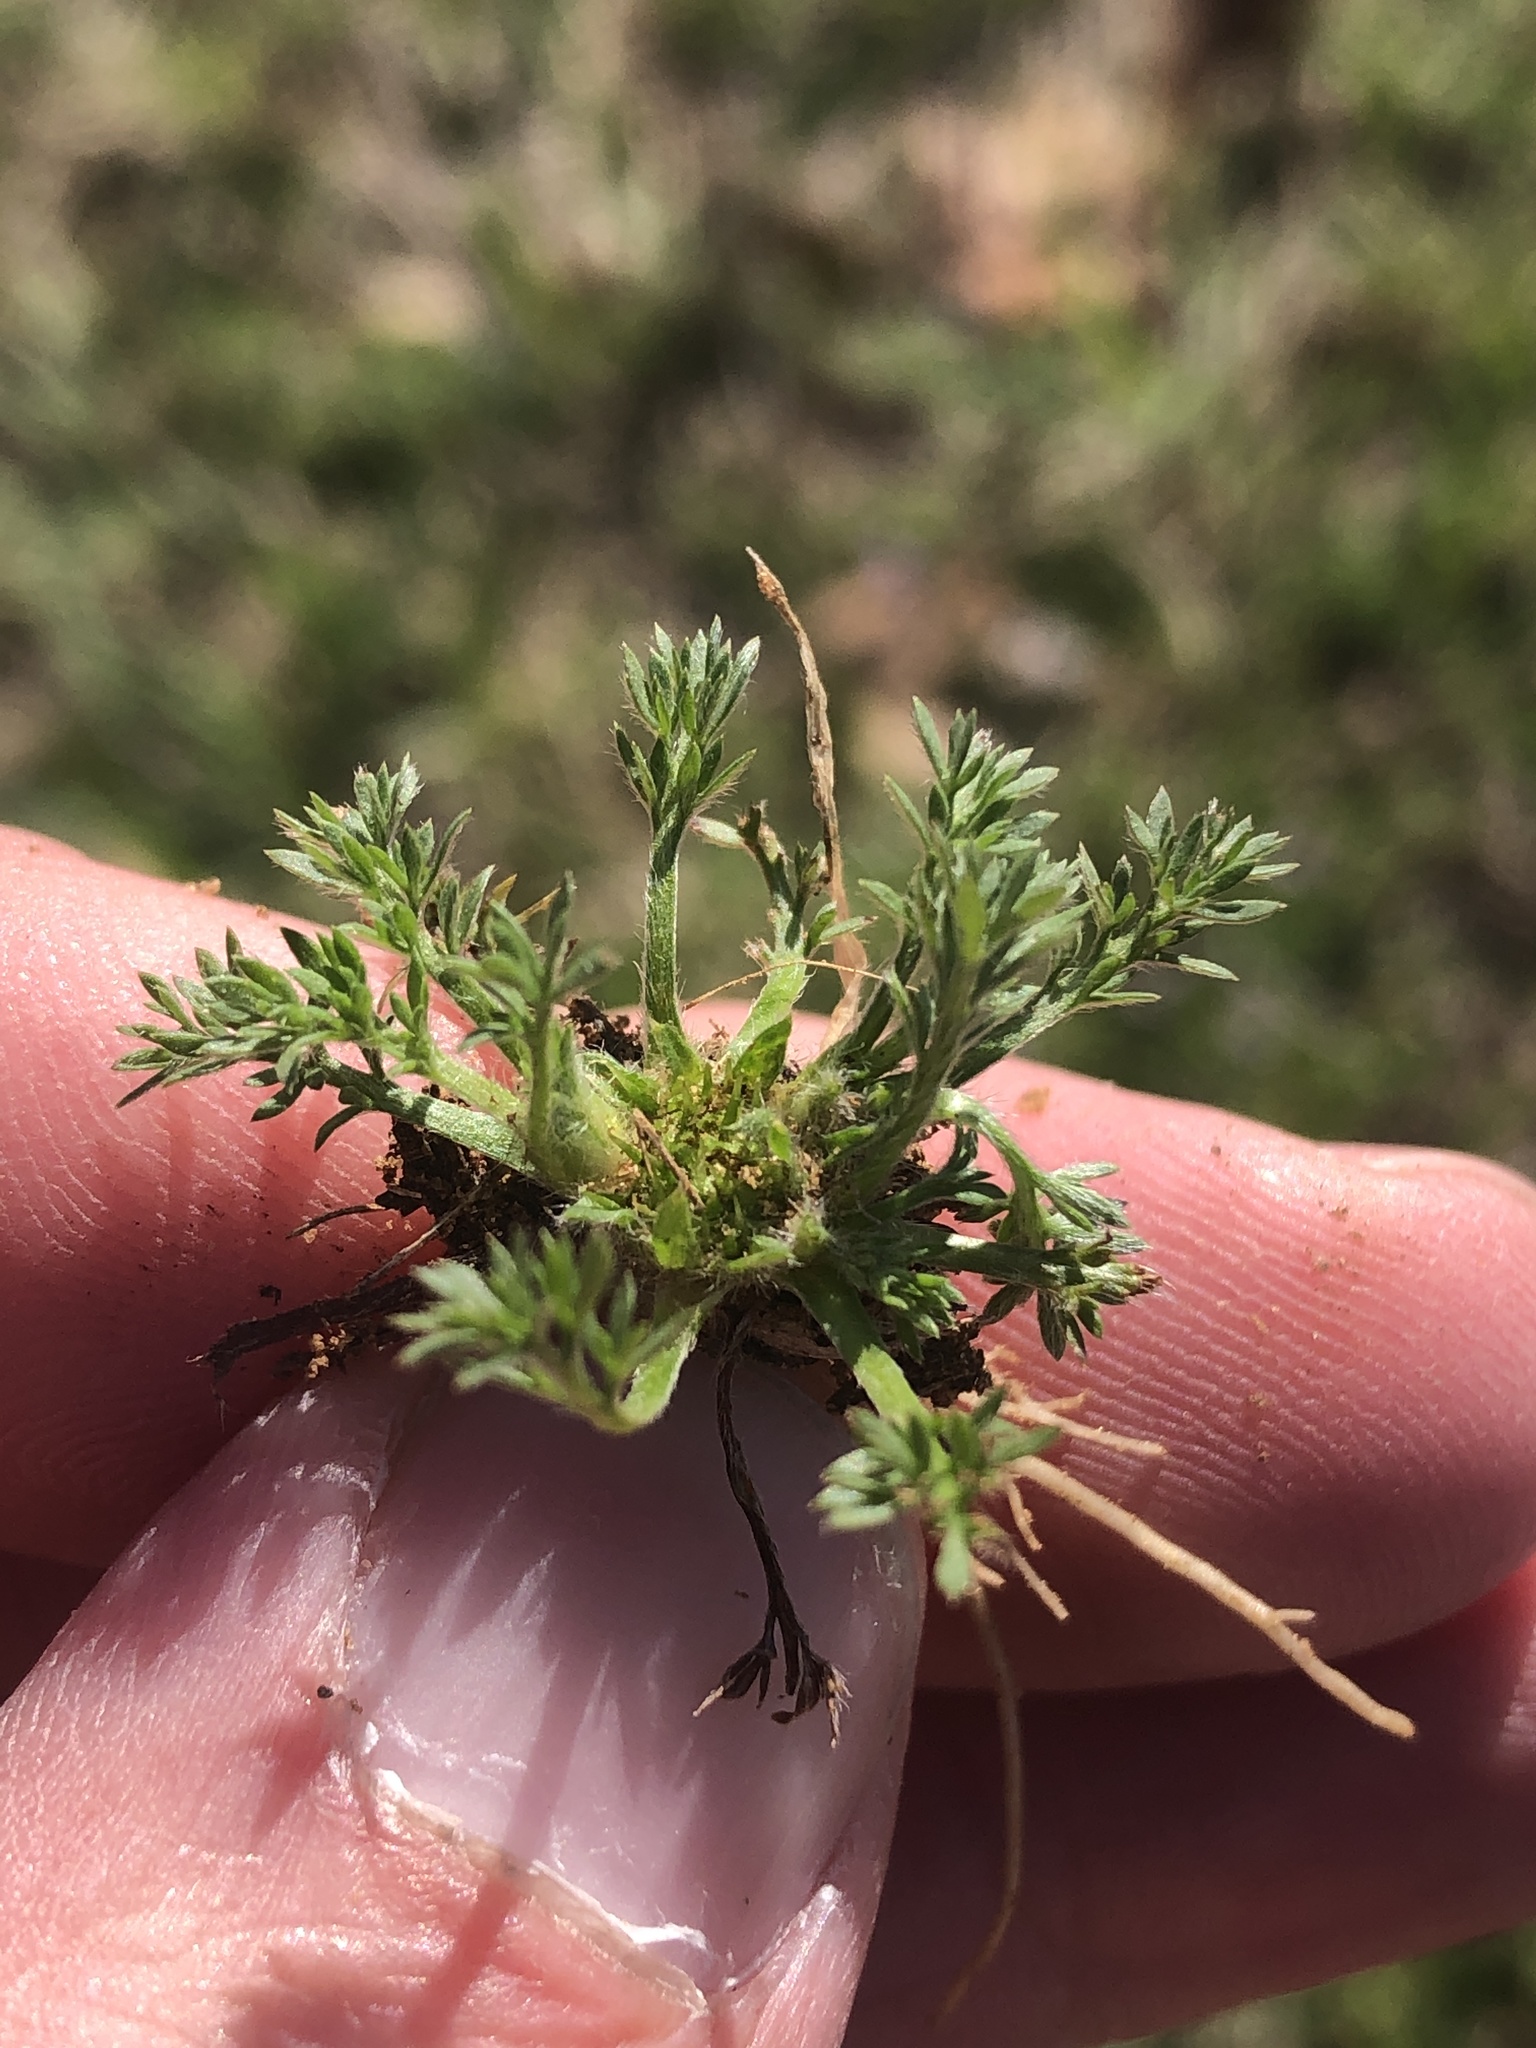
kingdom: Plantae
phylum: Tracheophyta
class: Magnoliopsida
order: Asterales
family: Asteraceae
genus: Soliva
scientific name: Soliva sessilis
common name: Field burrweed
